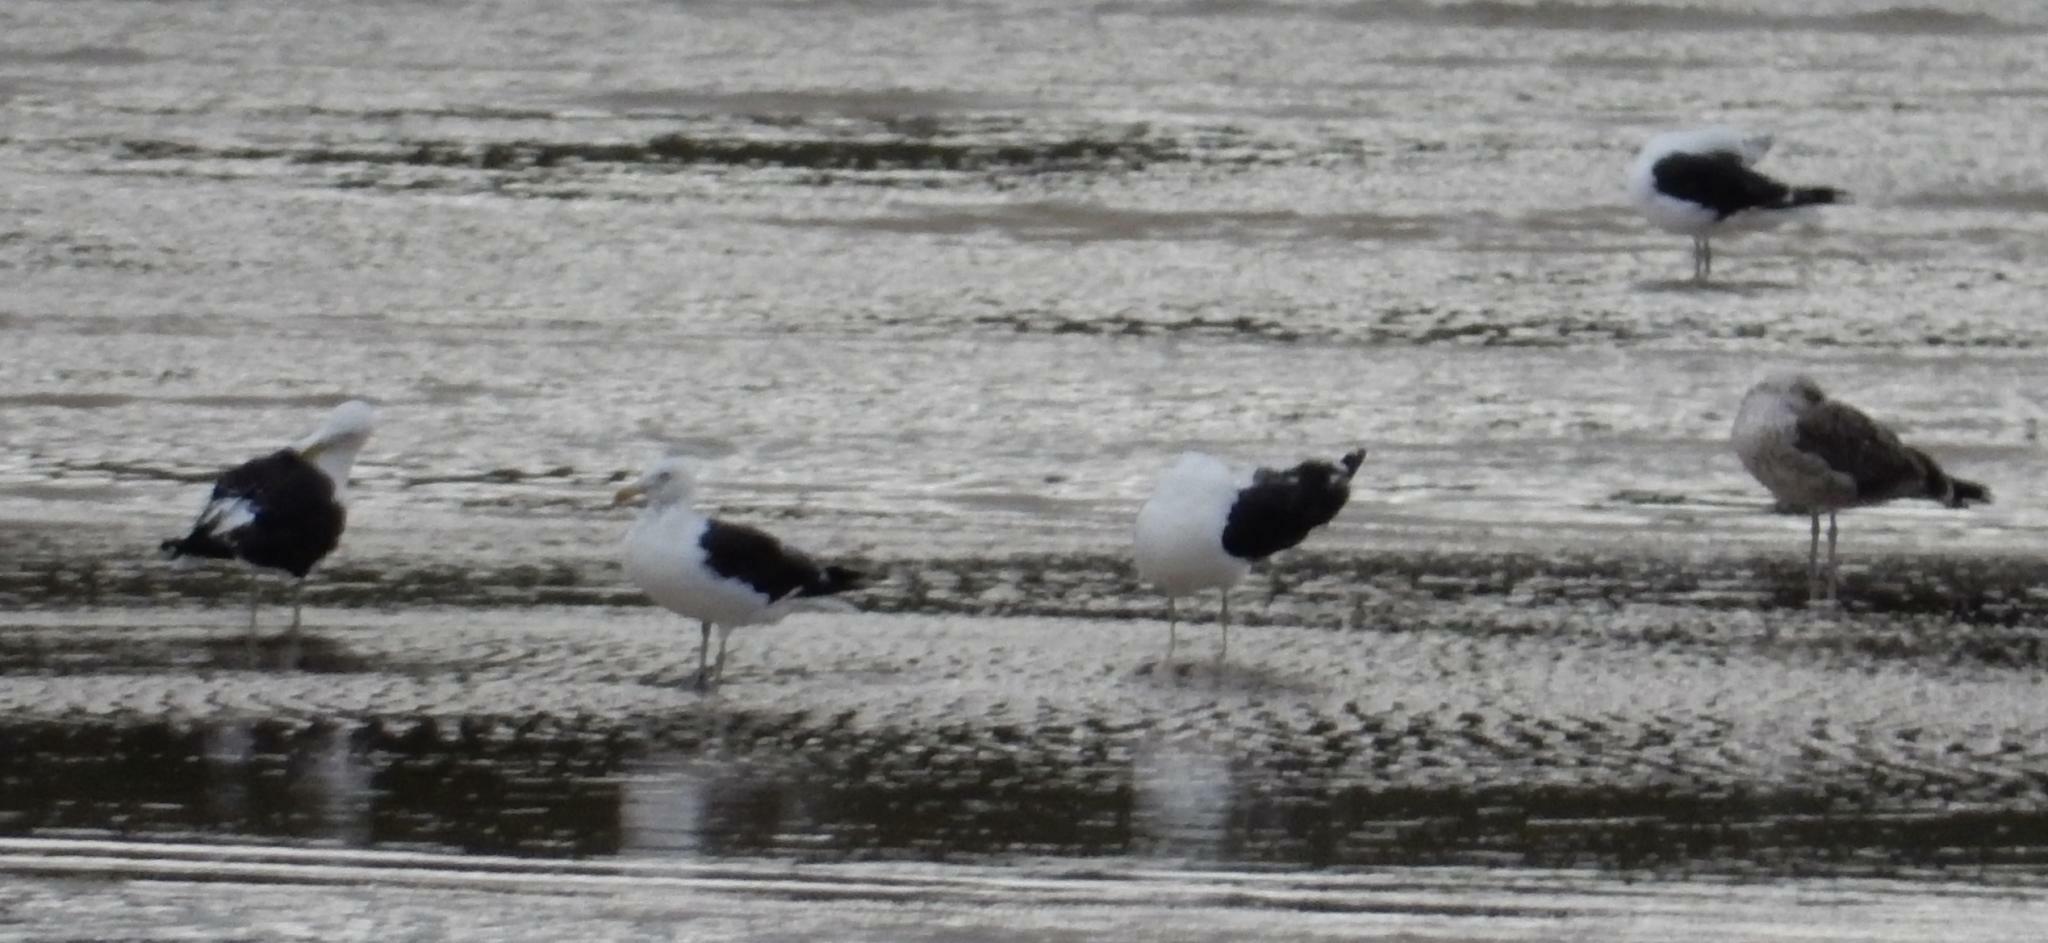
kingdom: Animalia
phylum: Chordata
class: Aves
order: Charadriiformes
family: Laridae
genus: Larus
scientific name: Larus dominicanus
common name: Kelp gull
